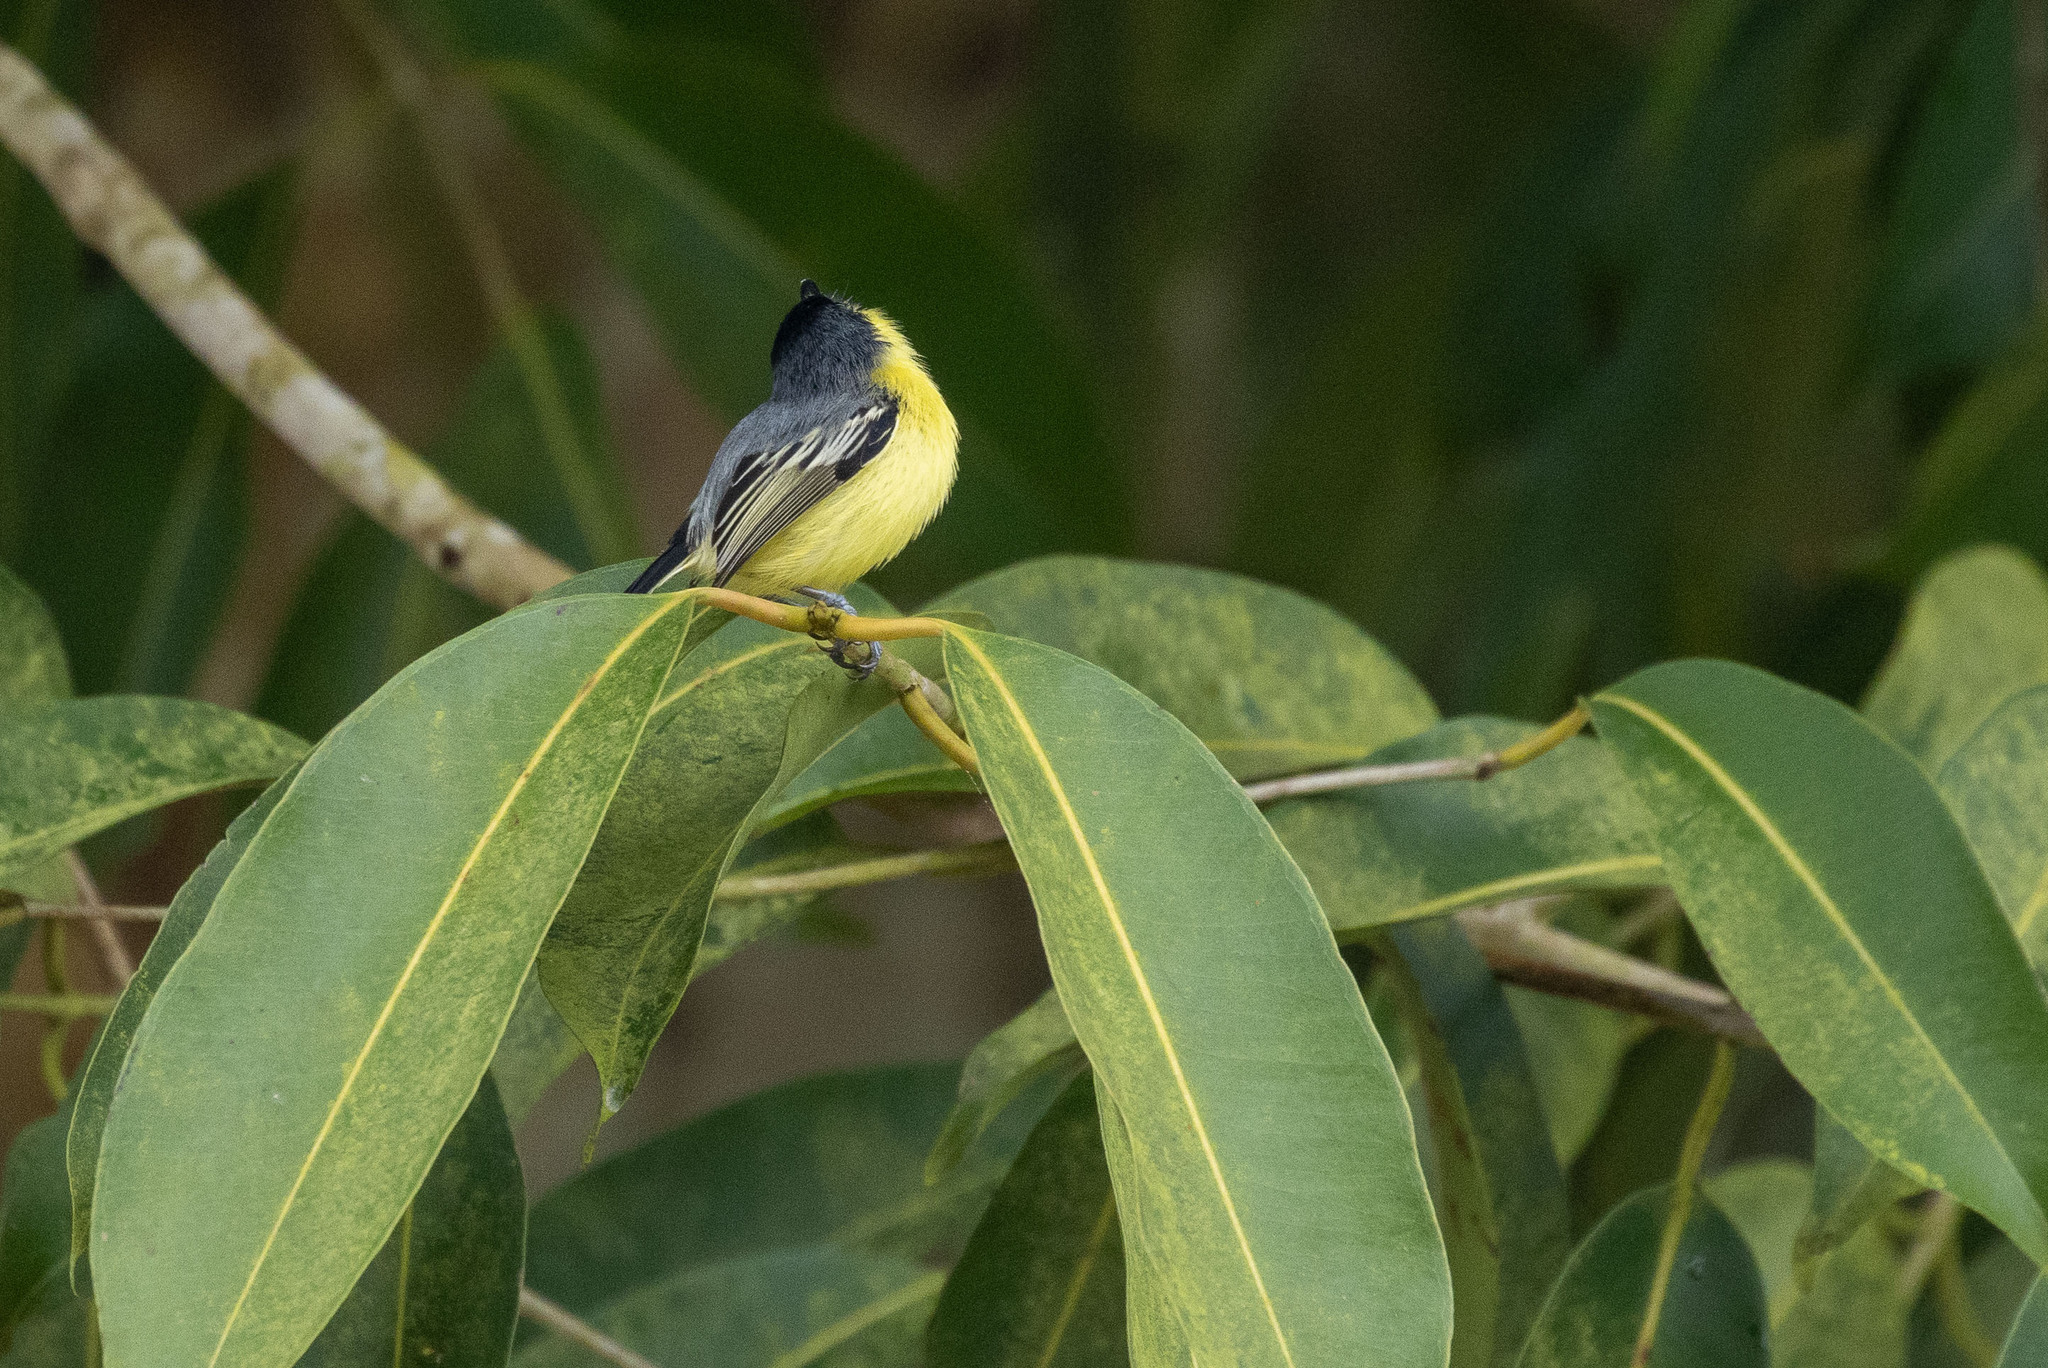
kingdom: Animalia
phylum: Chordata
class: Aves
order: Passeriformes
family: Tyrannidae
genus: Todirostrum
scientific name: Todirostrum cinereum
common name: Common tody-flycatcher
